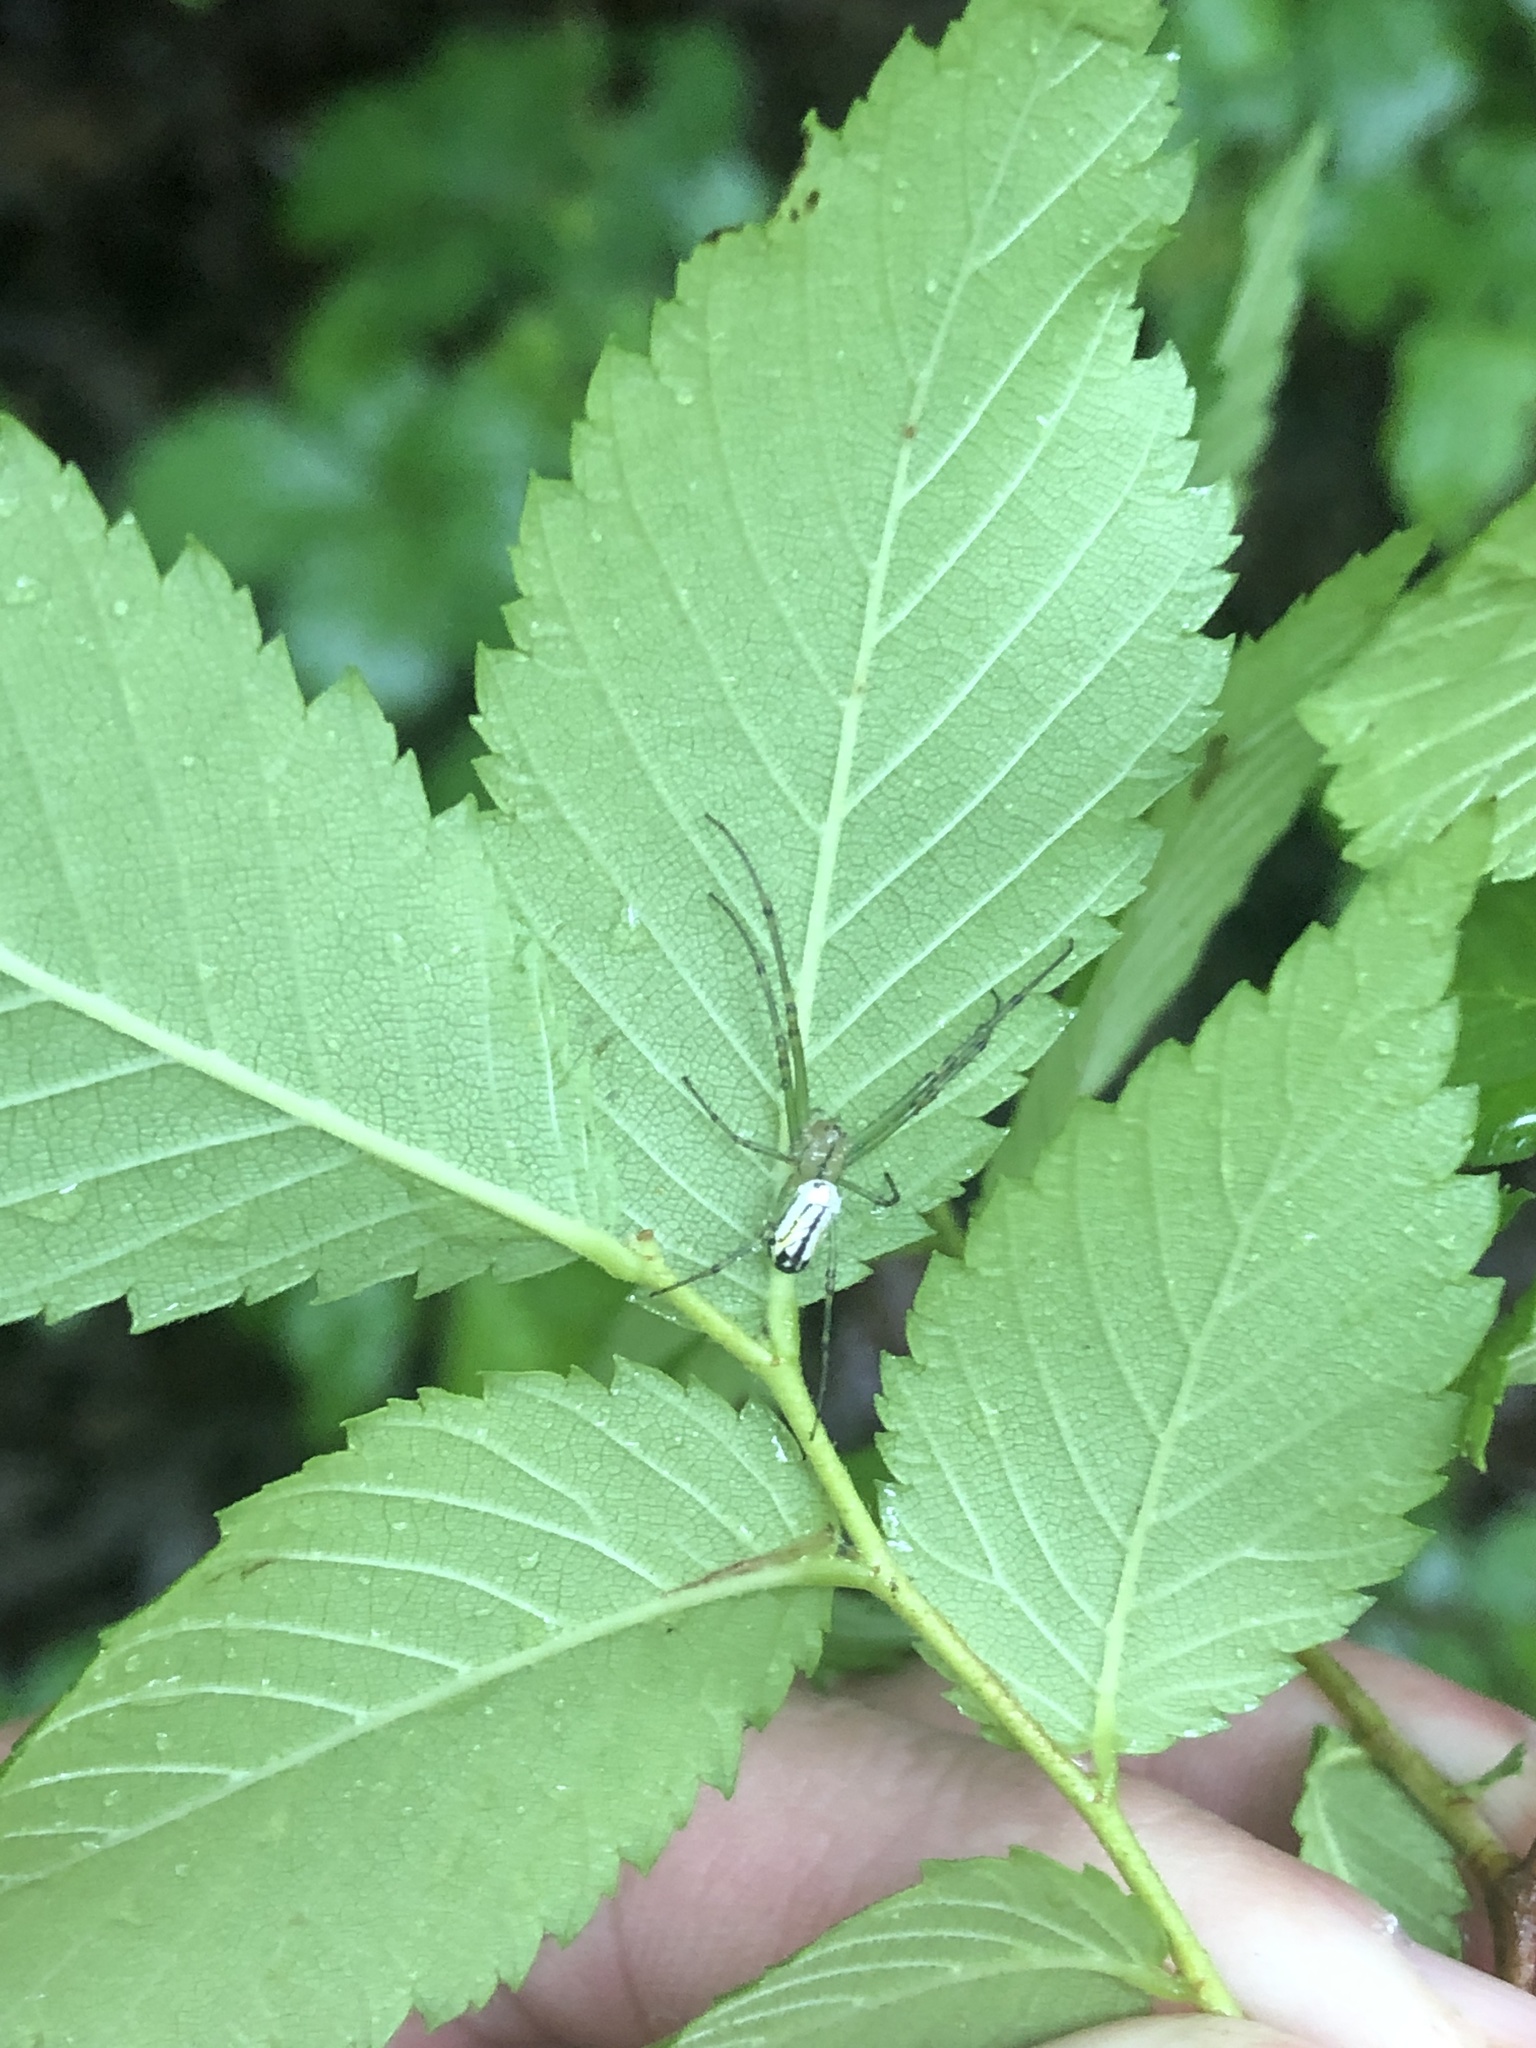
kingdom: Animalia
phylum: Arthropoda
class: Arachnida
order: Araneae
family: Tetragnathidae
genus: Leucauge
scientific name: Leucauge venusta
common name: Longjawed orb weavers
